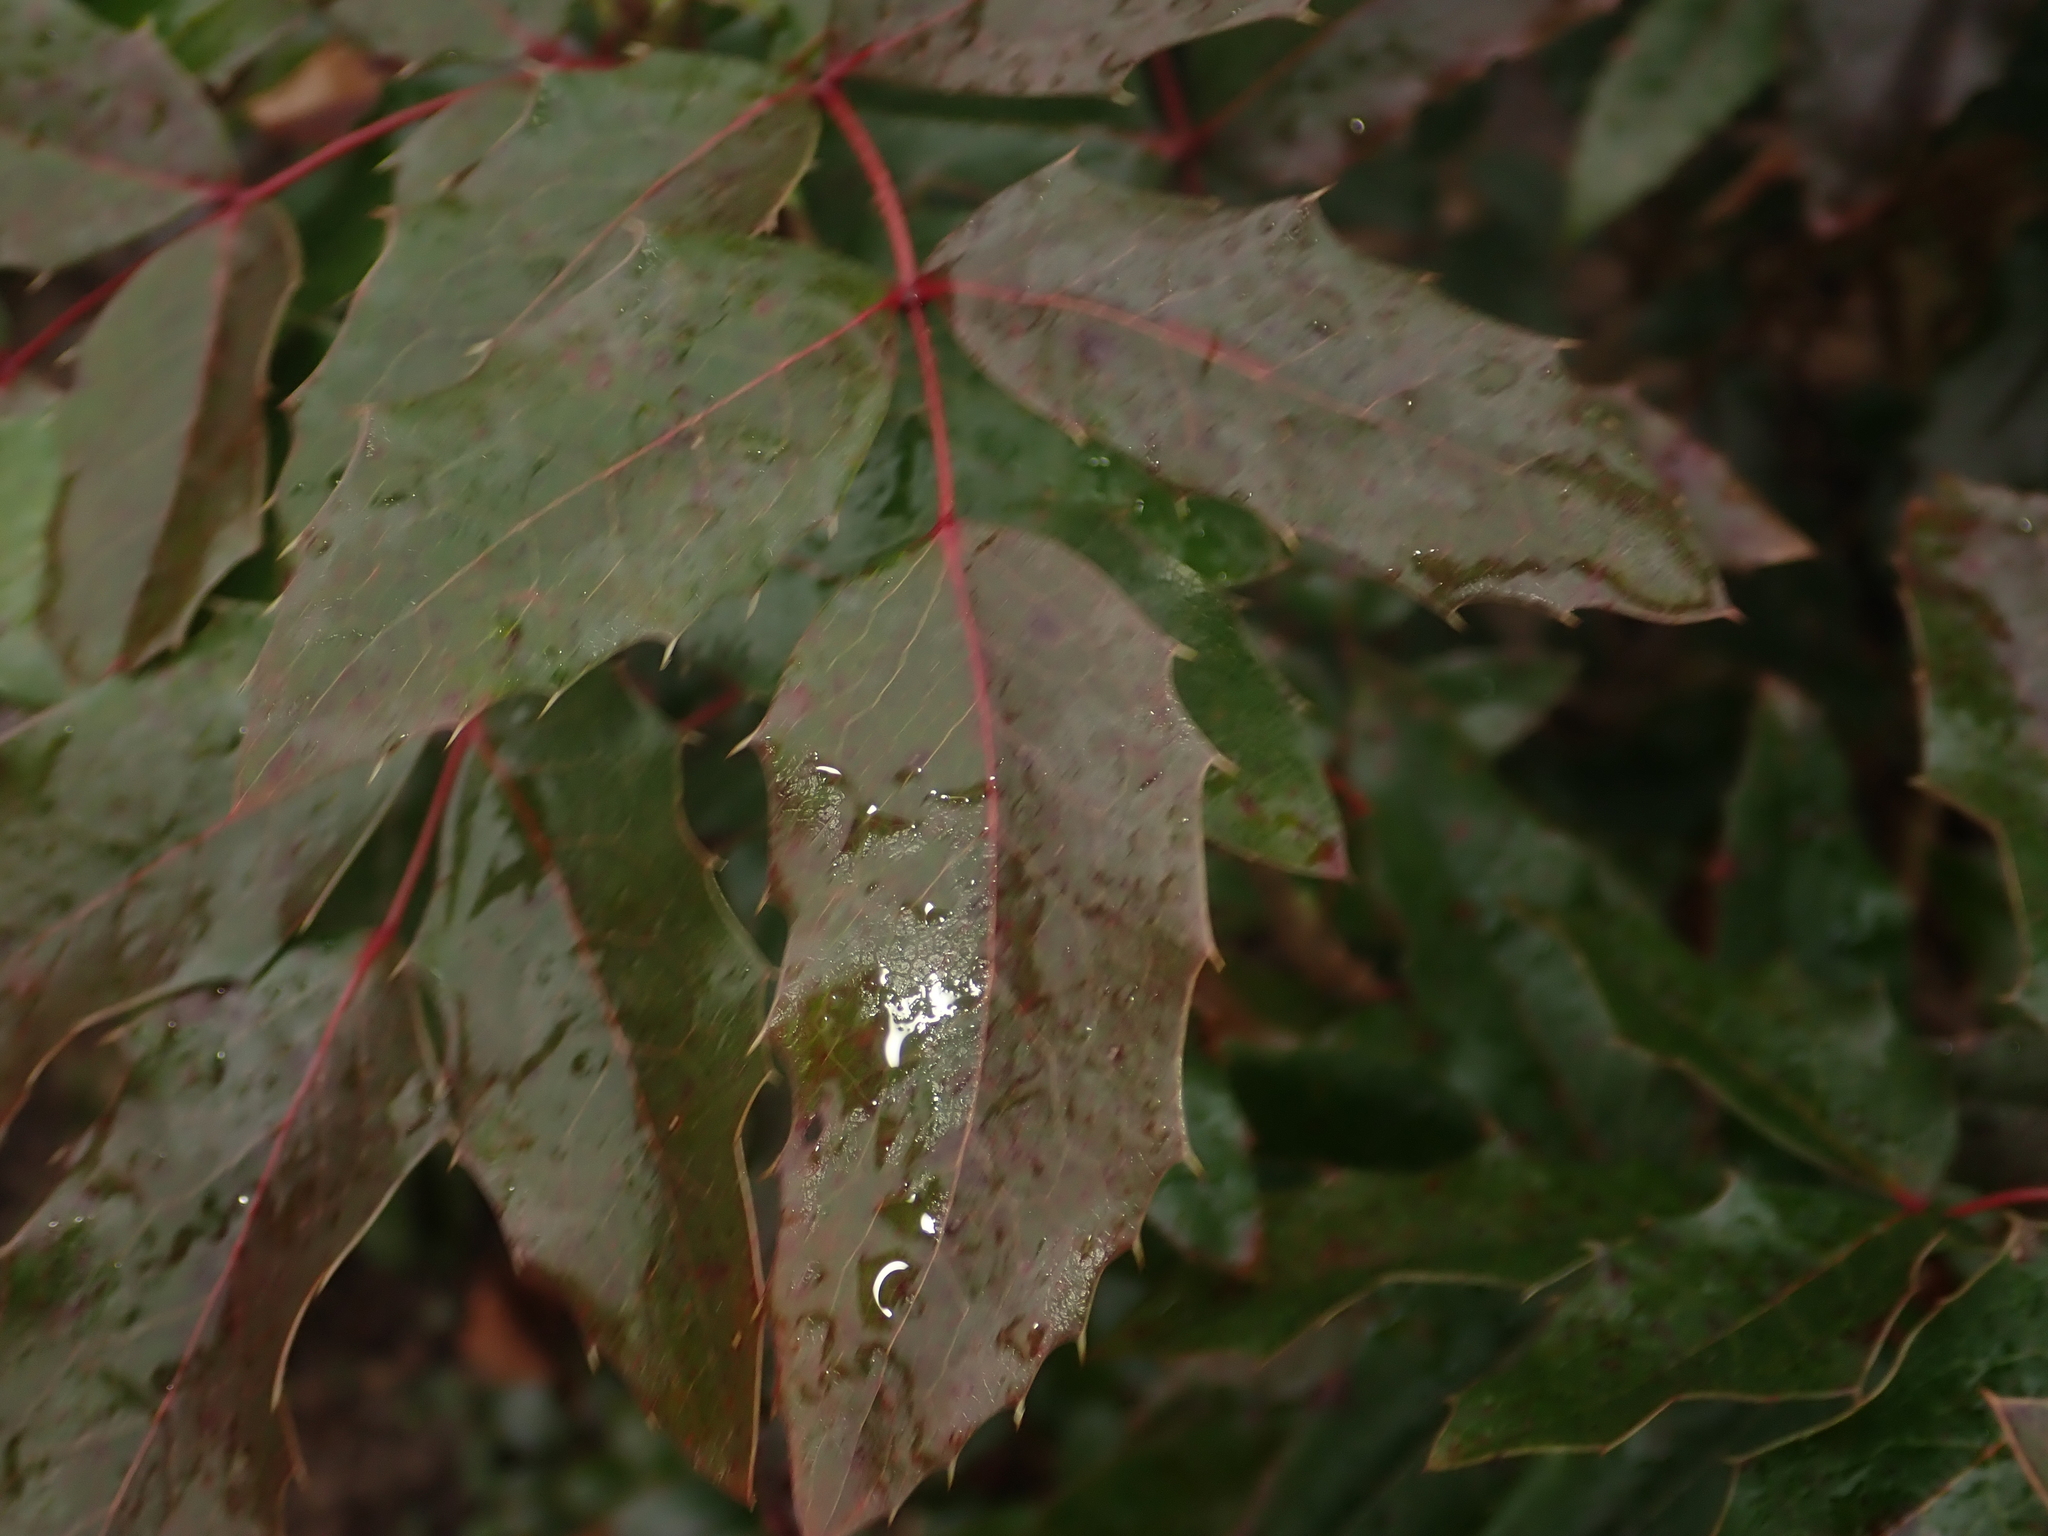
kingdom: Plantae
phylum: Tracheophyta
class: Magnoliopsida
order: Ranunculales
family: Berberidaceae
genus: Mahonia
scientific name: Mahonia aquifolium
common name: Oregon-grape
